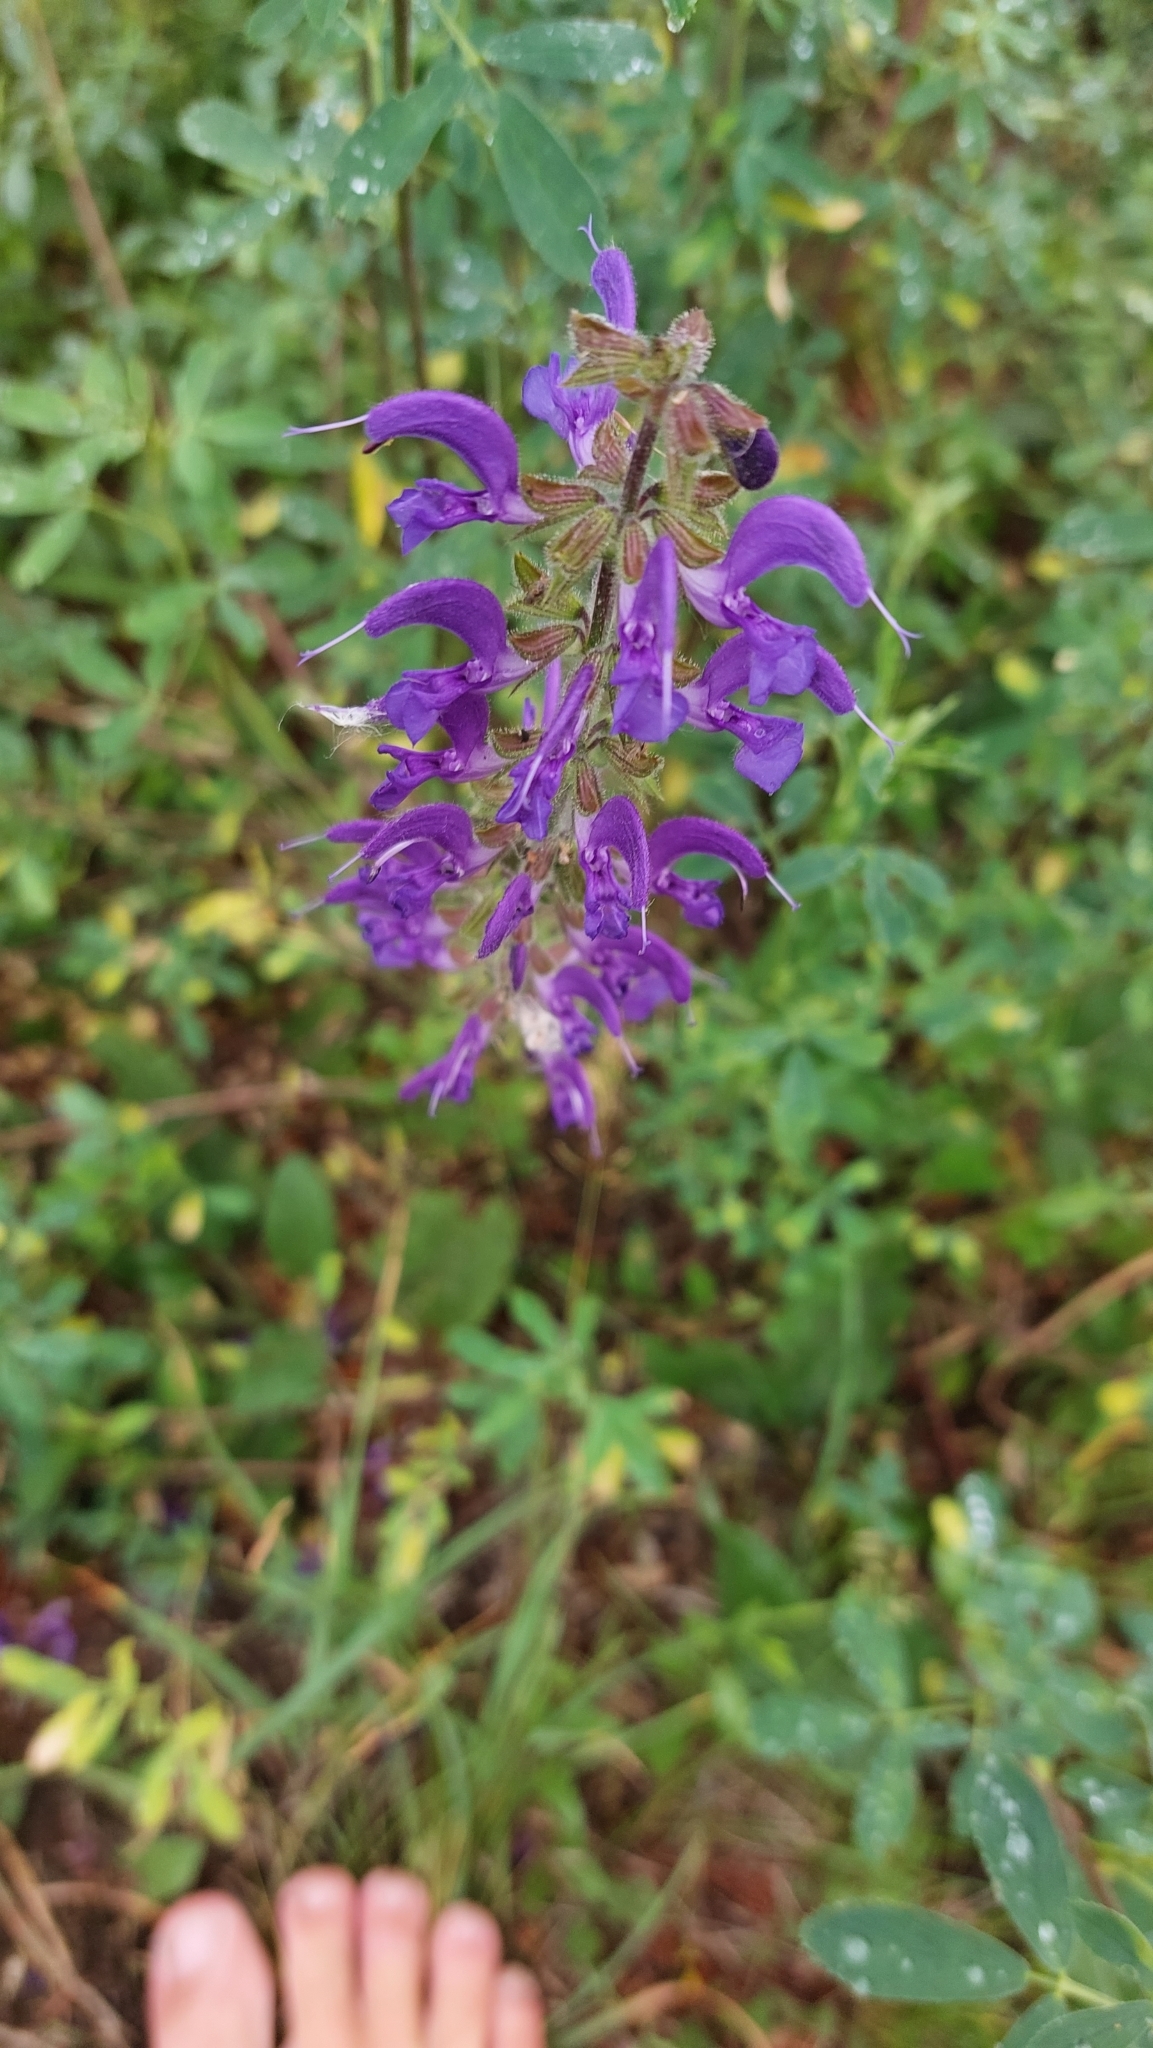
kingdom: Plantae
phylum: Tracheophyta
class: Magnoliopsida
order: Lamiales
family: Lamiaceae
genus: Salvia
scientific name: Salvia pratensis
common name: Meadow sage
